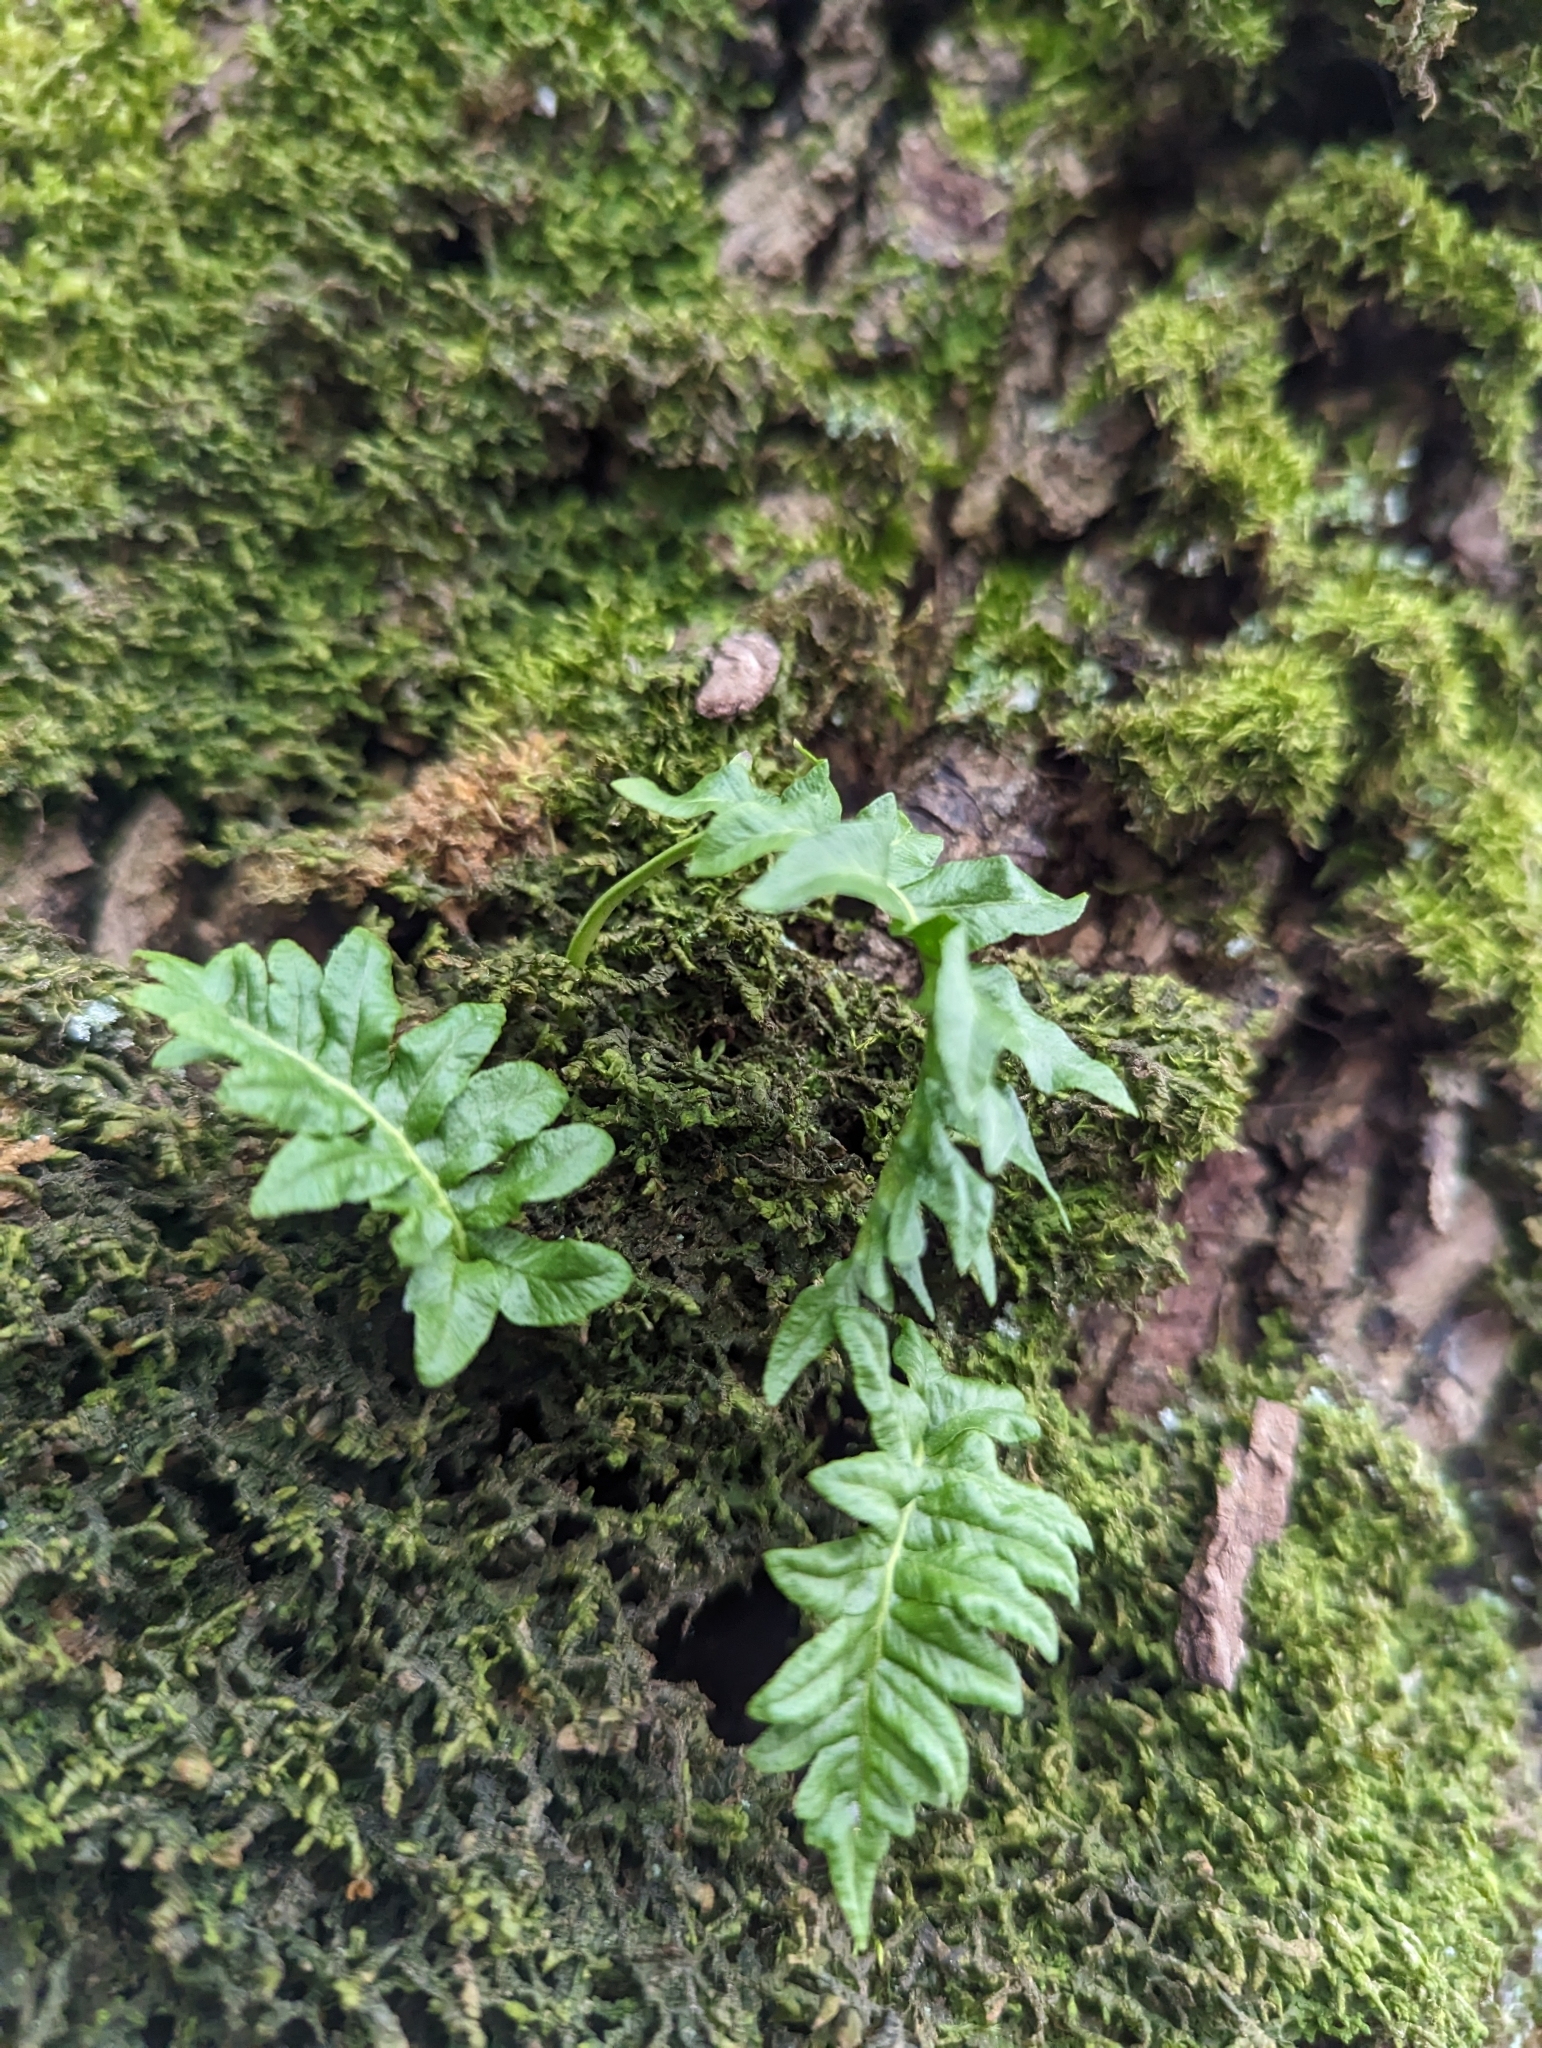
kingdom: Plantae
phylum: Tracheophyta
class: Polypodiopsida
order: Polypodiales
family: Polypodiaceae
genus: Polypodium
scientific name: Polypodium glycyrrhiza
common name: Licorice fern
